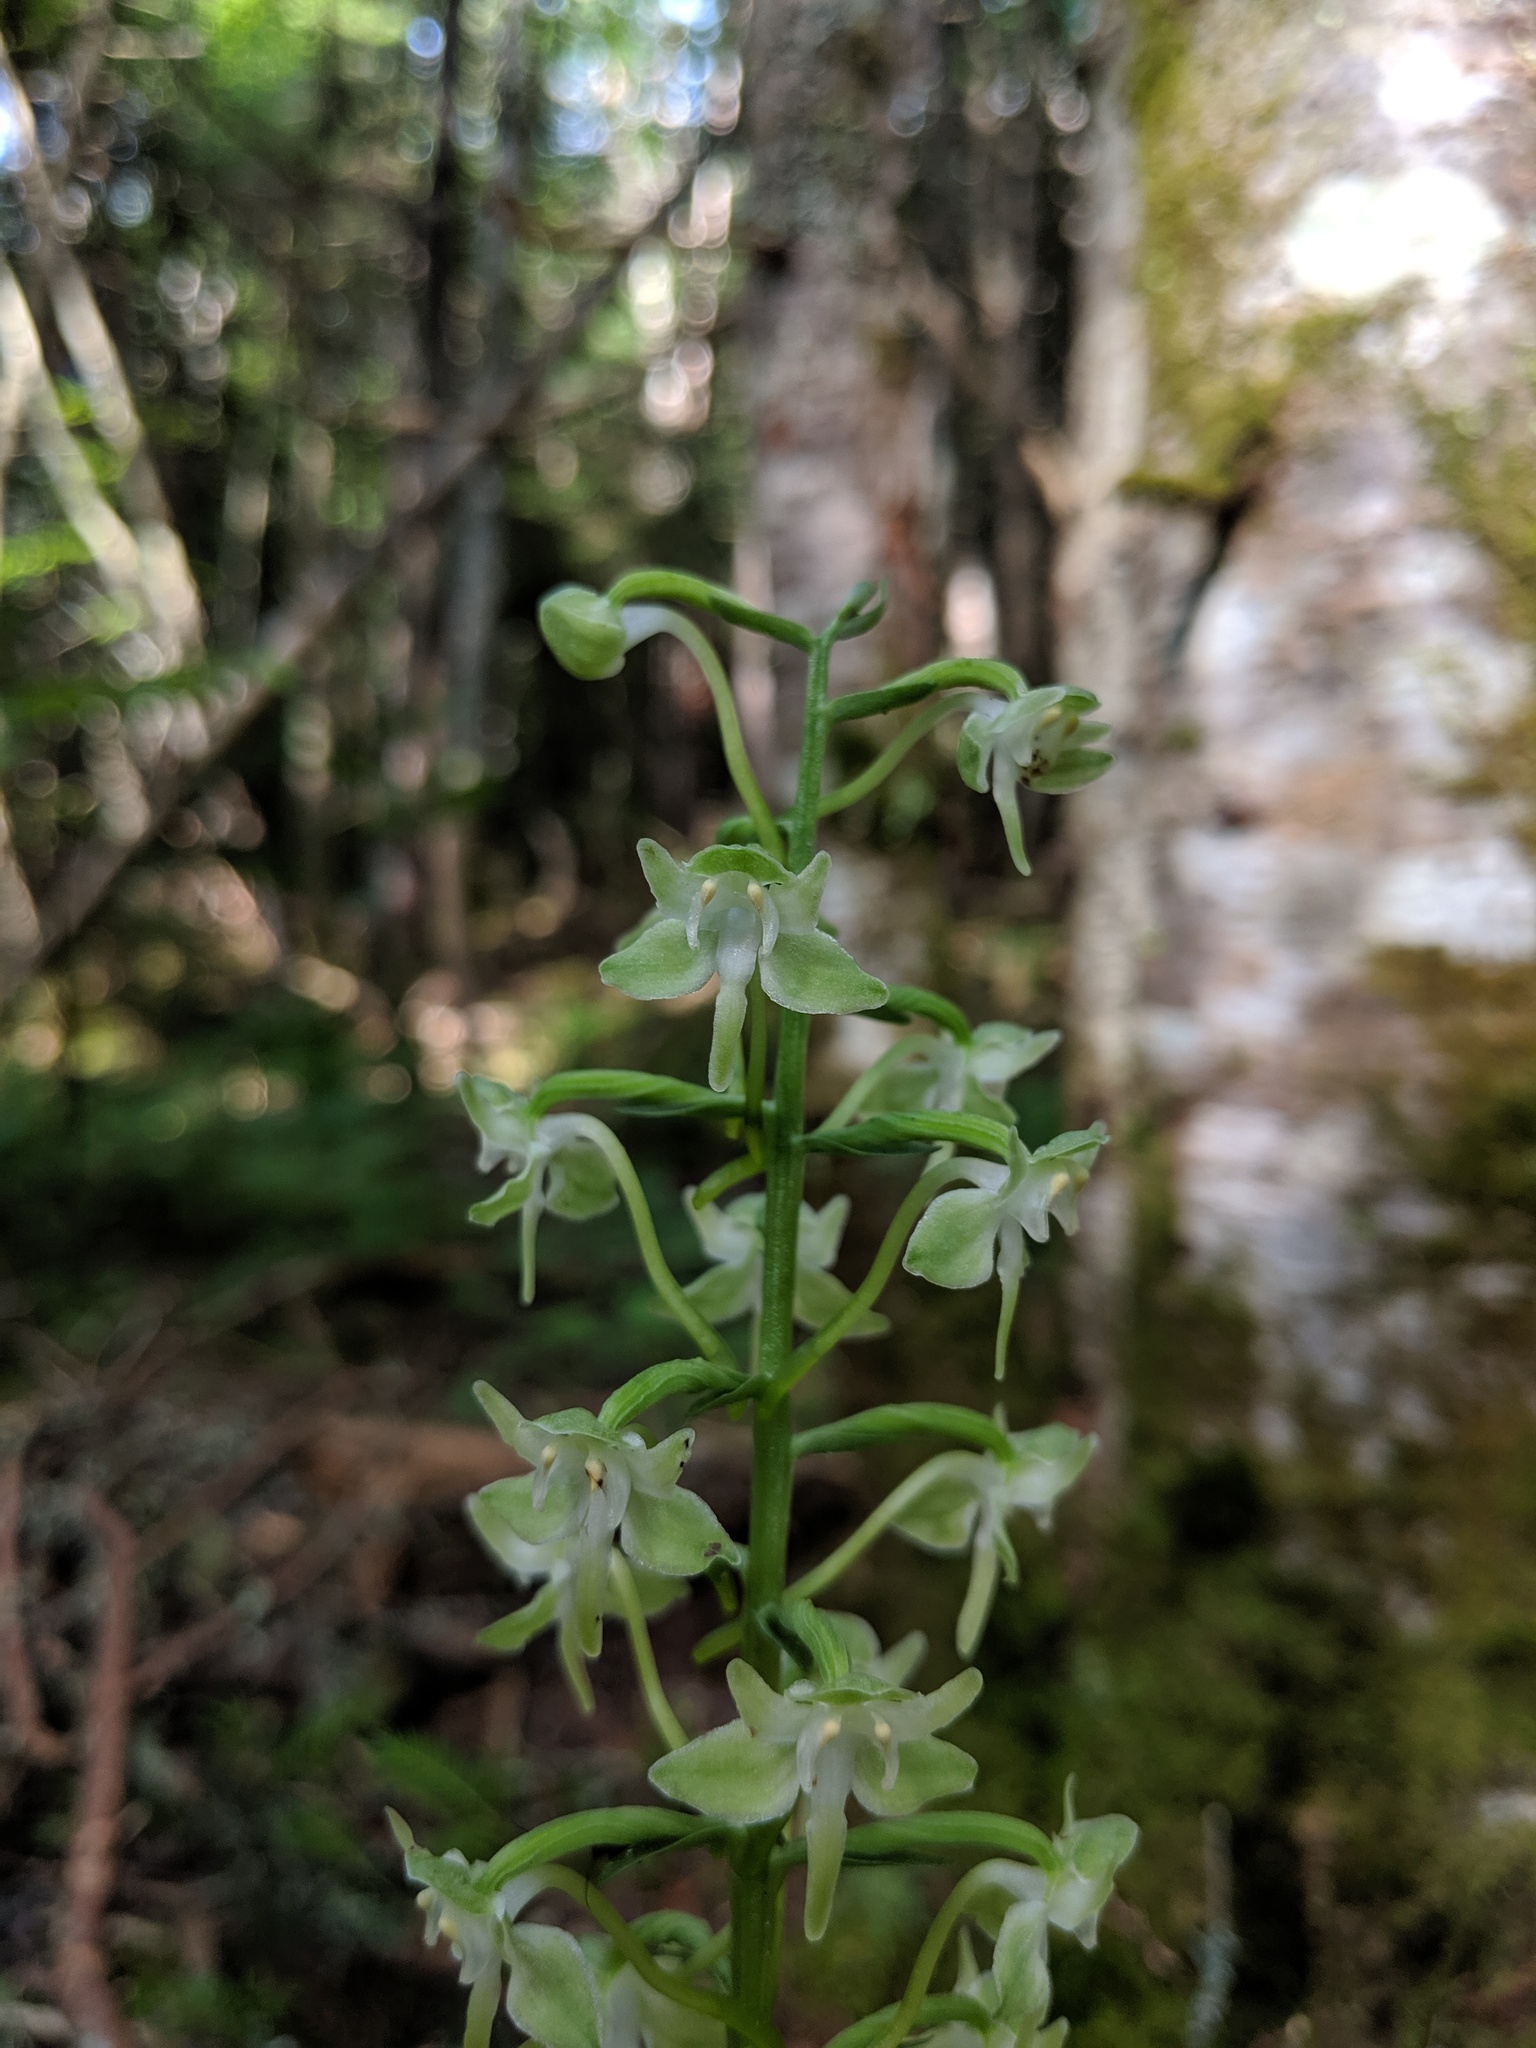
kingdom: Plantae
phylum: Tracheophyta
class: Liliopsida
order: Asparagales
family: Orchidaceae
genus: Platanthera
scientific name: Platanthera orbiculata
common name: Large round-leaved orchid
